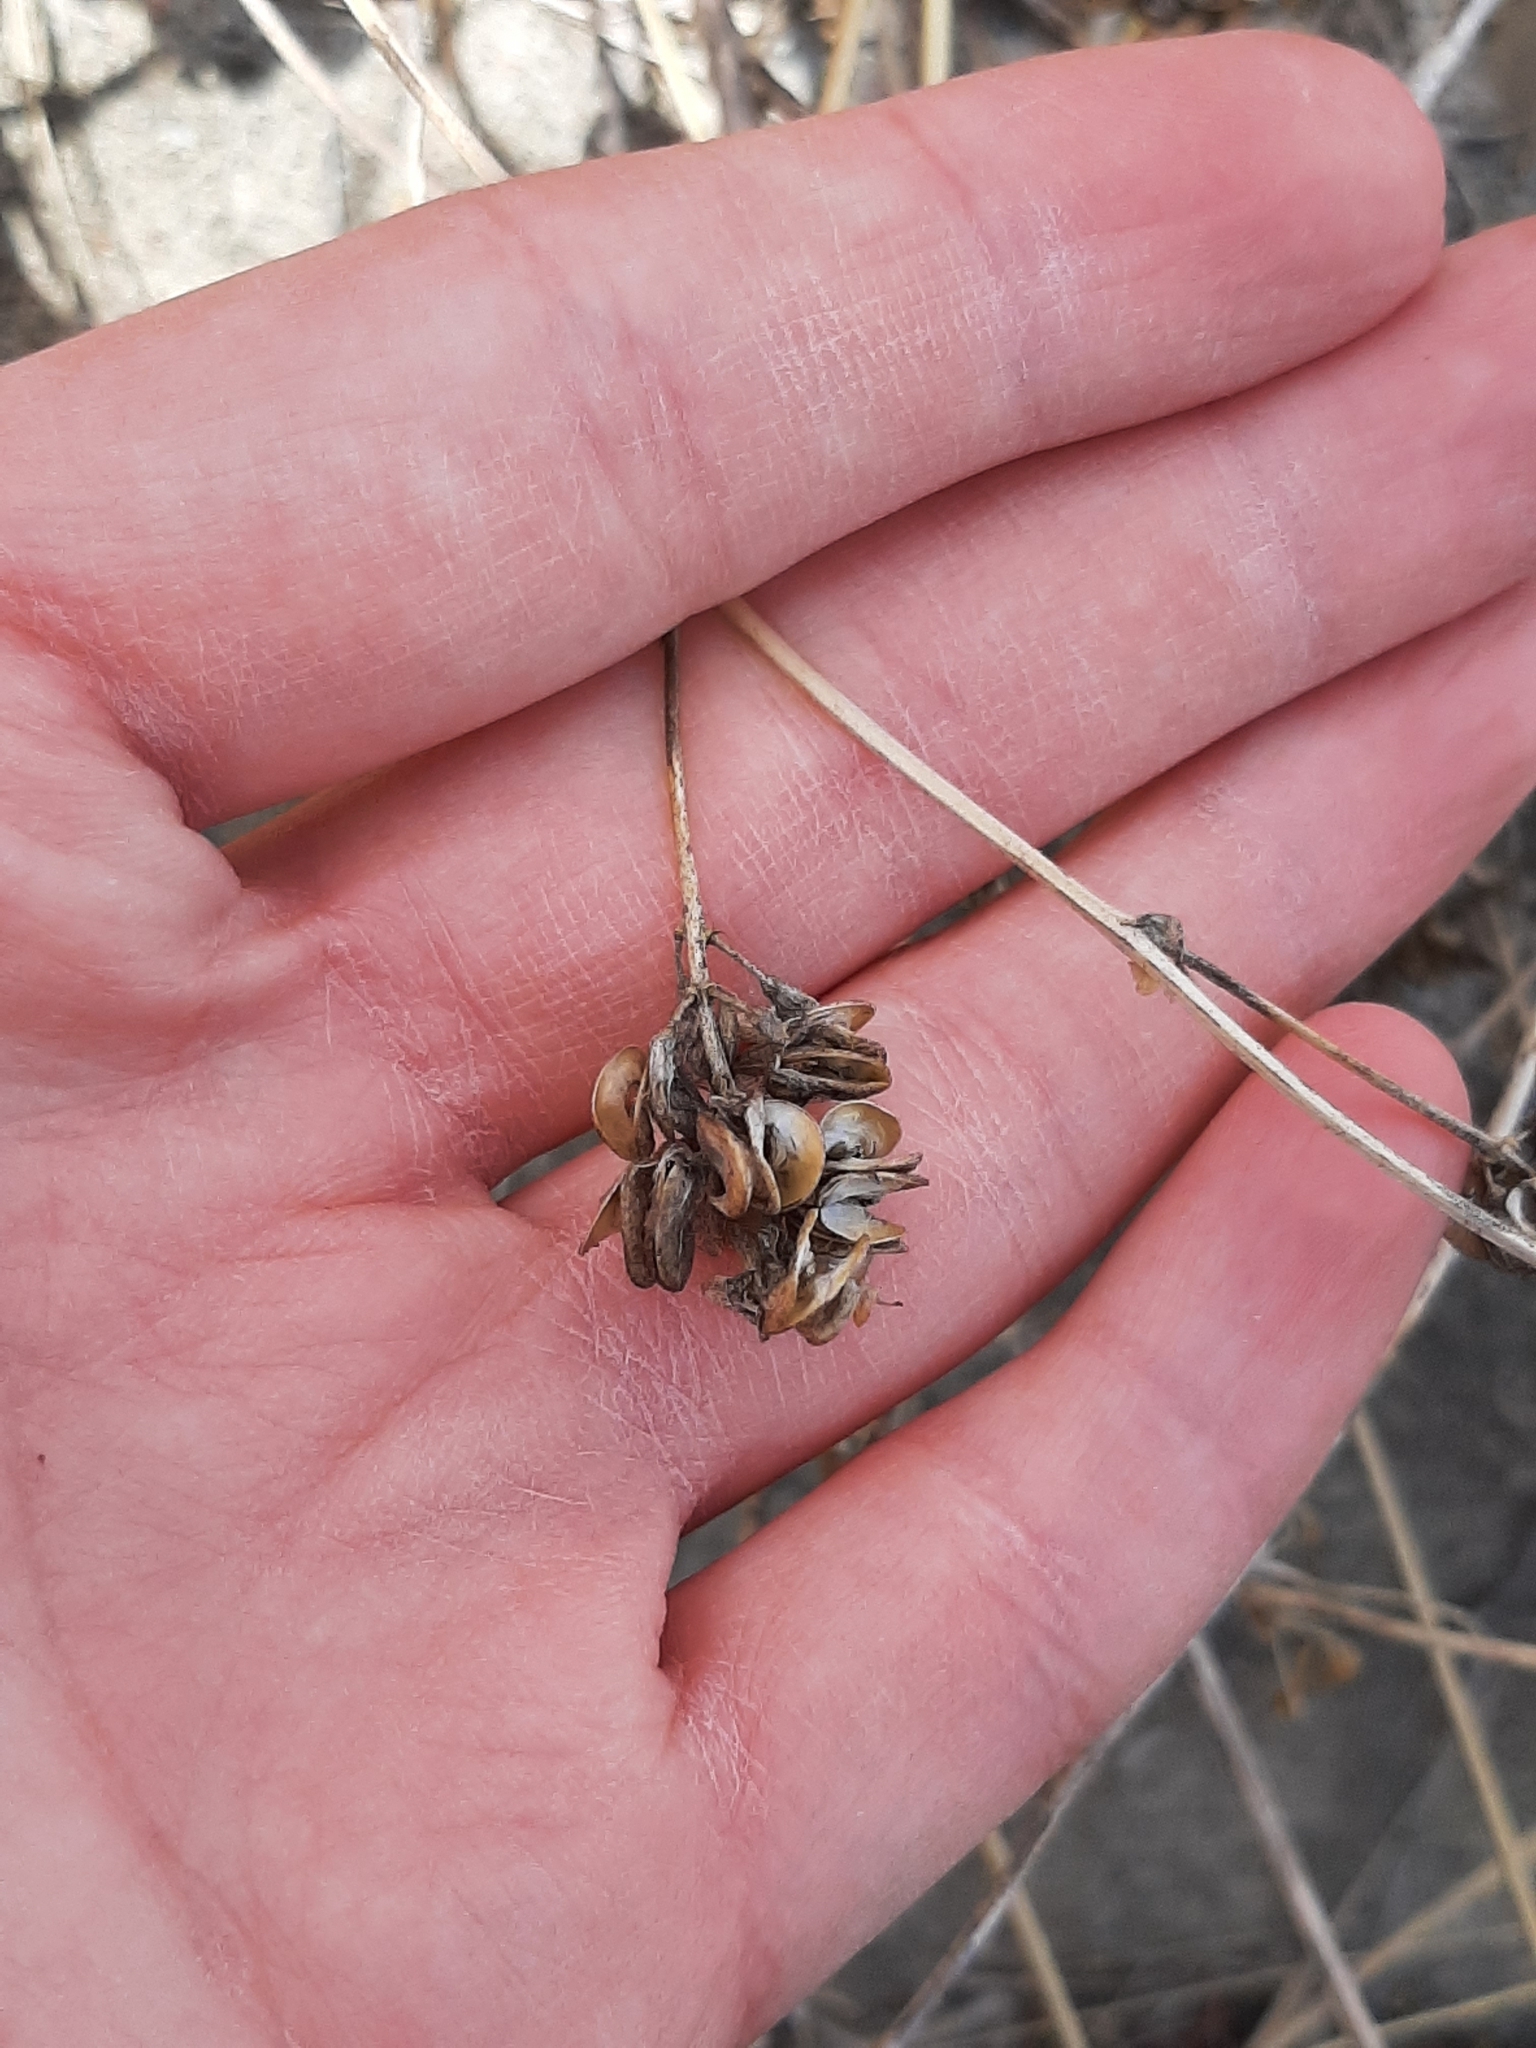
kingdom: Plantae
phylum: Tracheophyta
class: Magnoliopsida
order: Fabales
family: Fabaceae
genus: Medicago
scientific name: Medicago sativa
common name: Alfalfa
